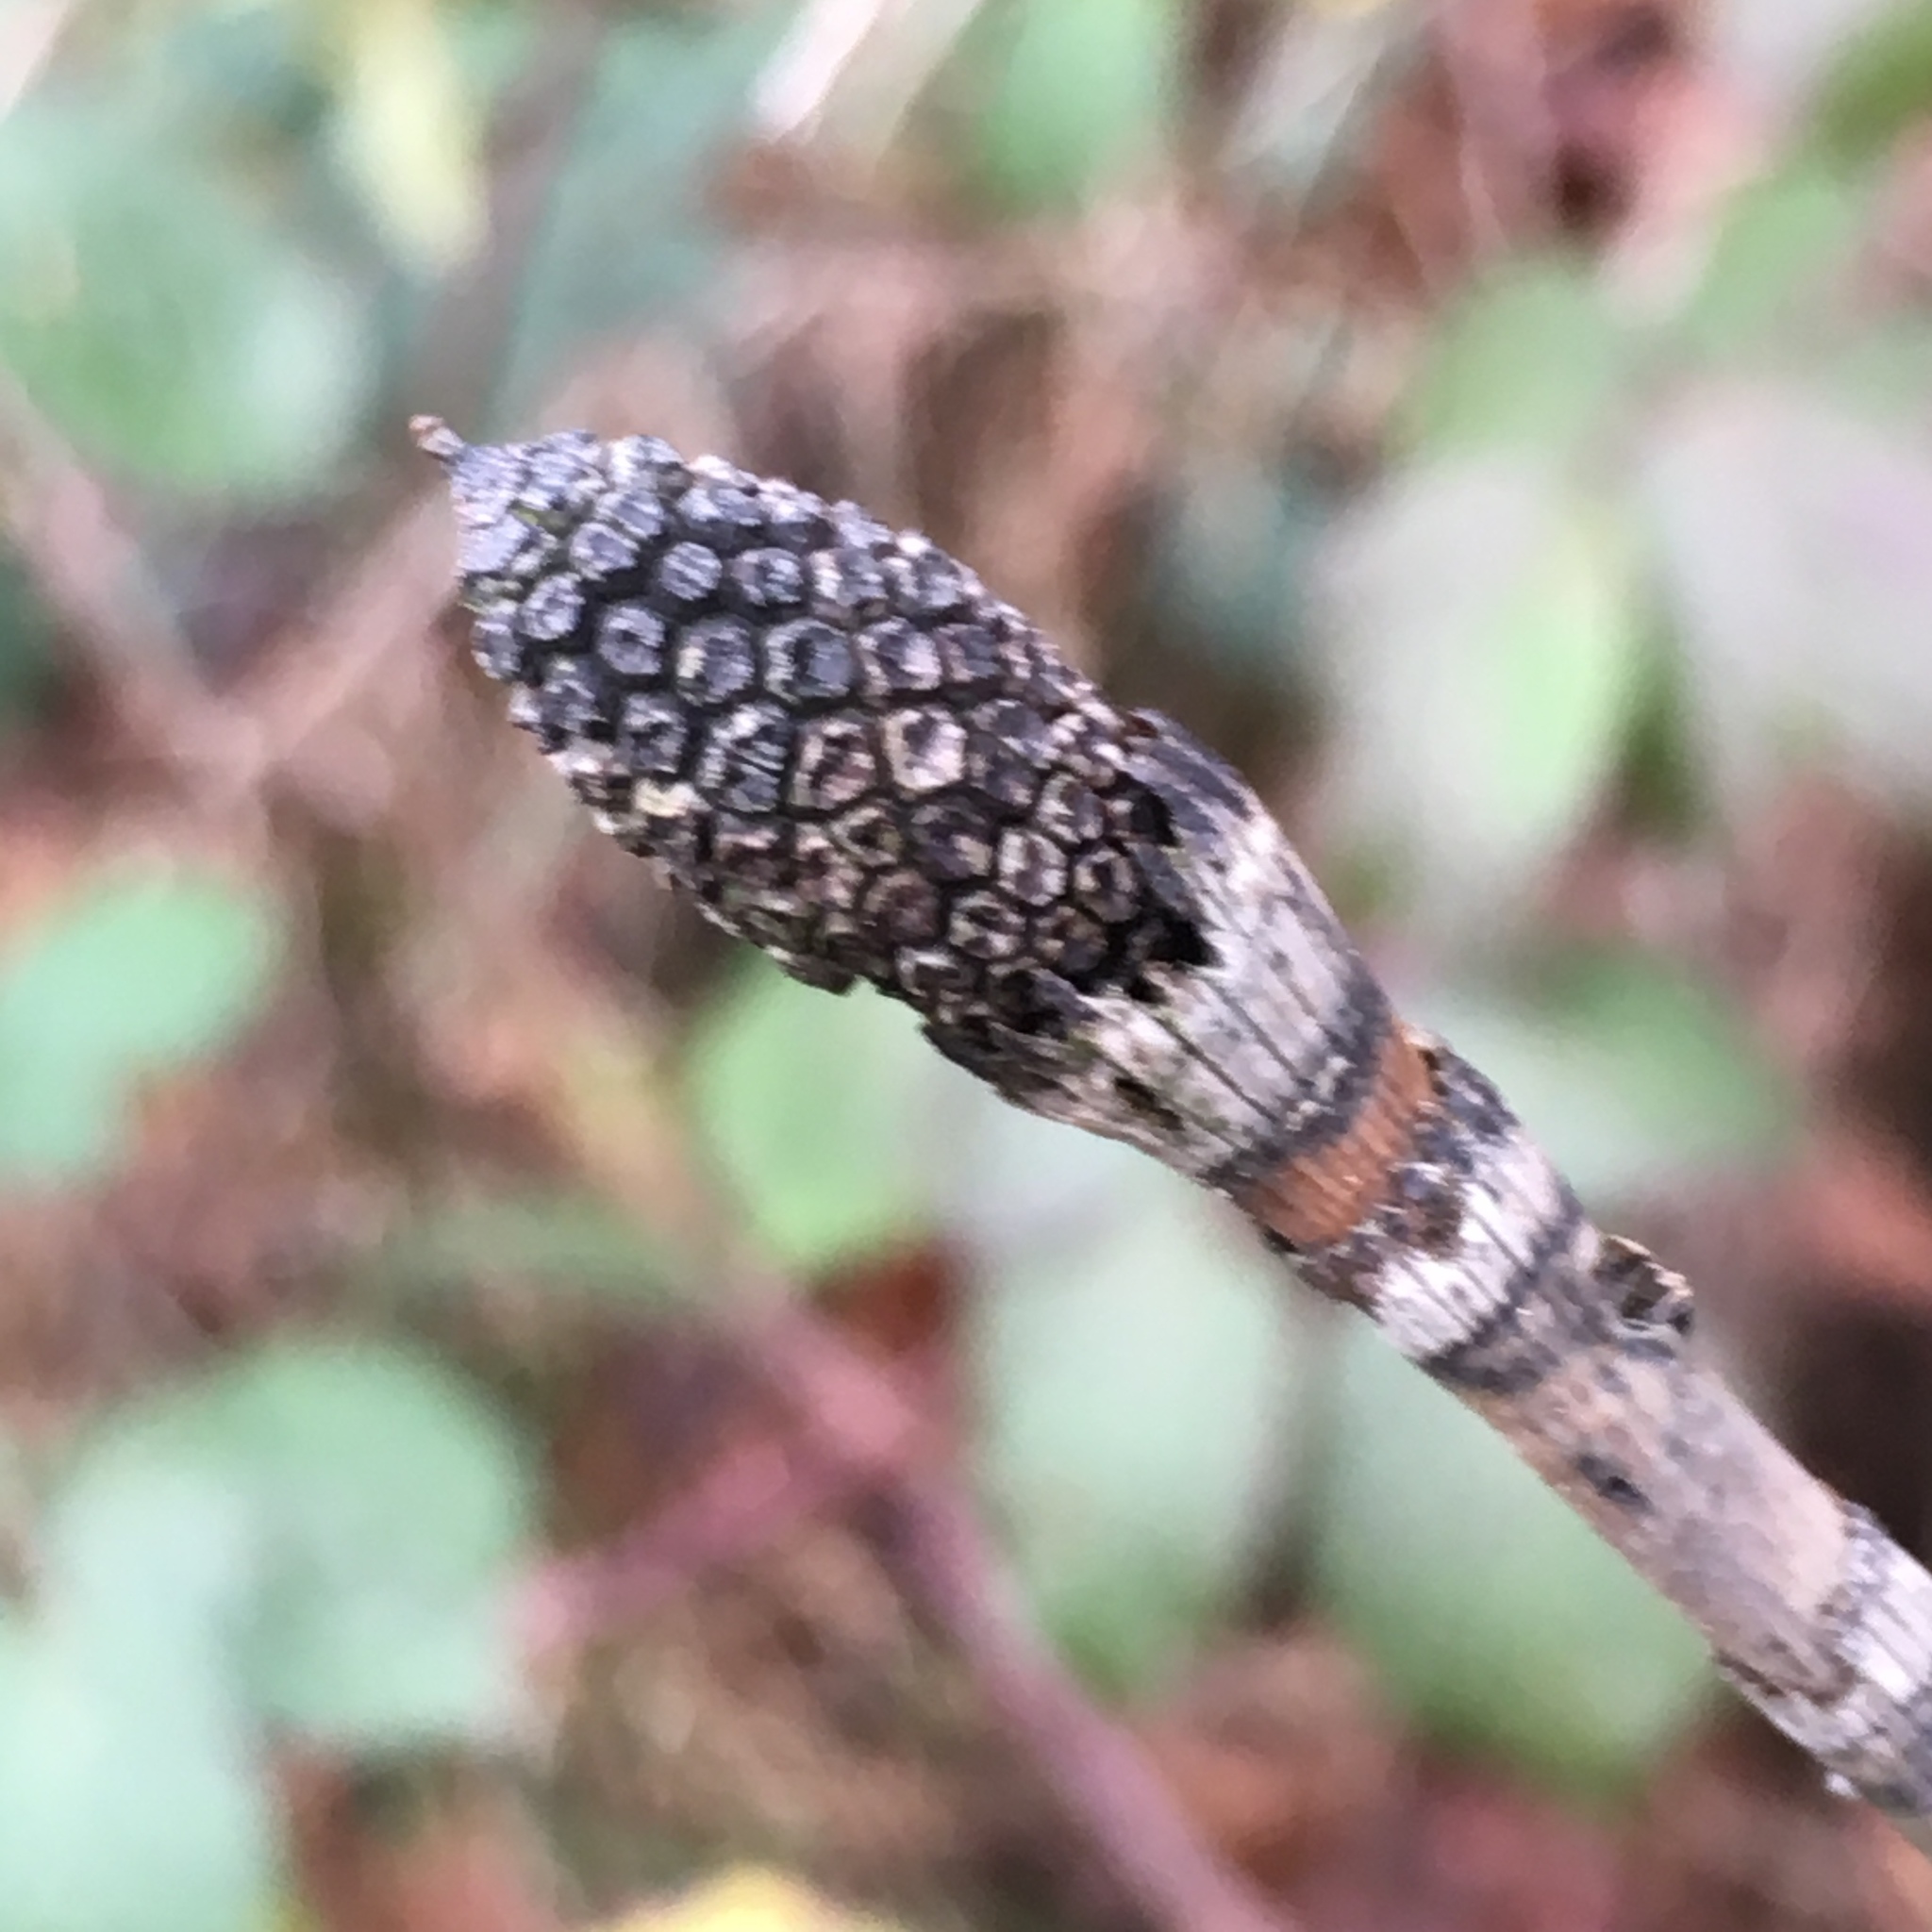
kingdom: Plantae
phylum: Tracheophyta
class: Polypodiopsida
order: Equisetales
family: Equisetaceae
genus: Equisetum
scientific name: Equisetum hyemale
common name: Rough horsetail
